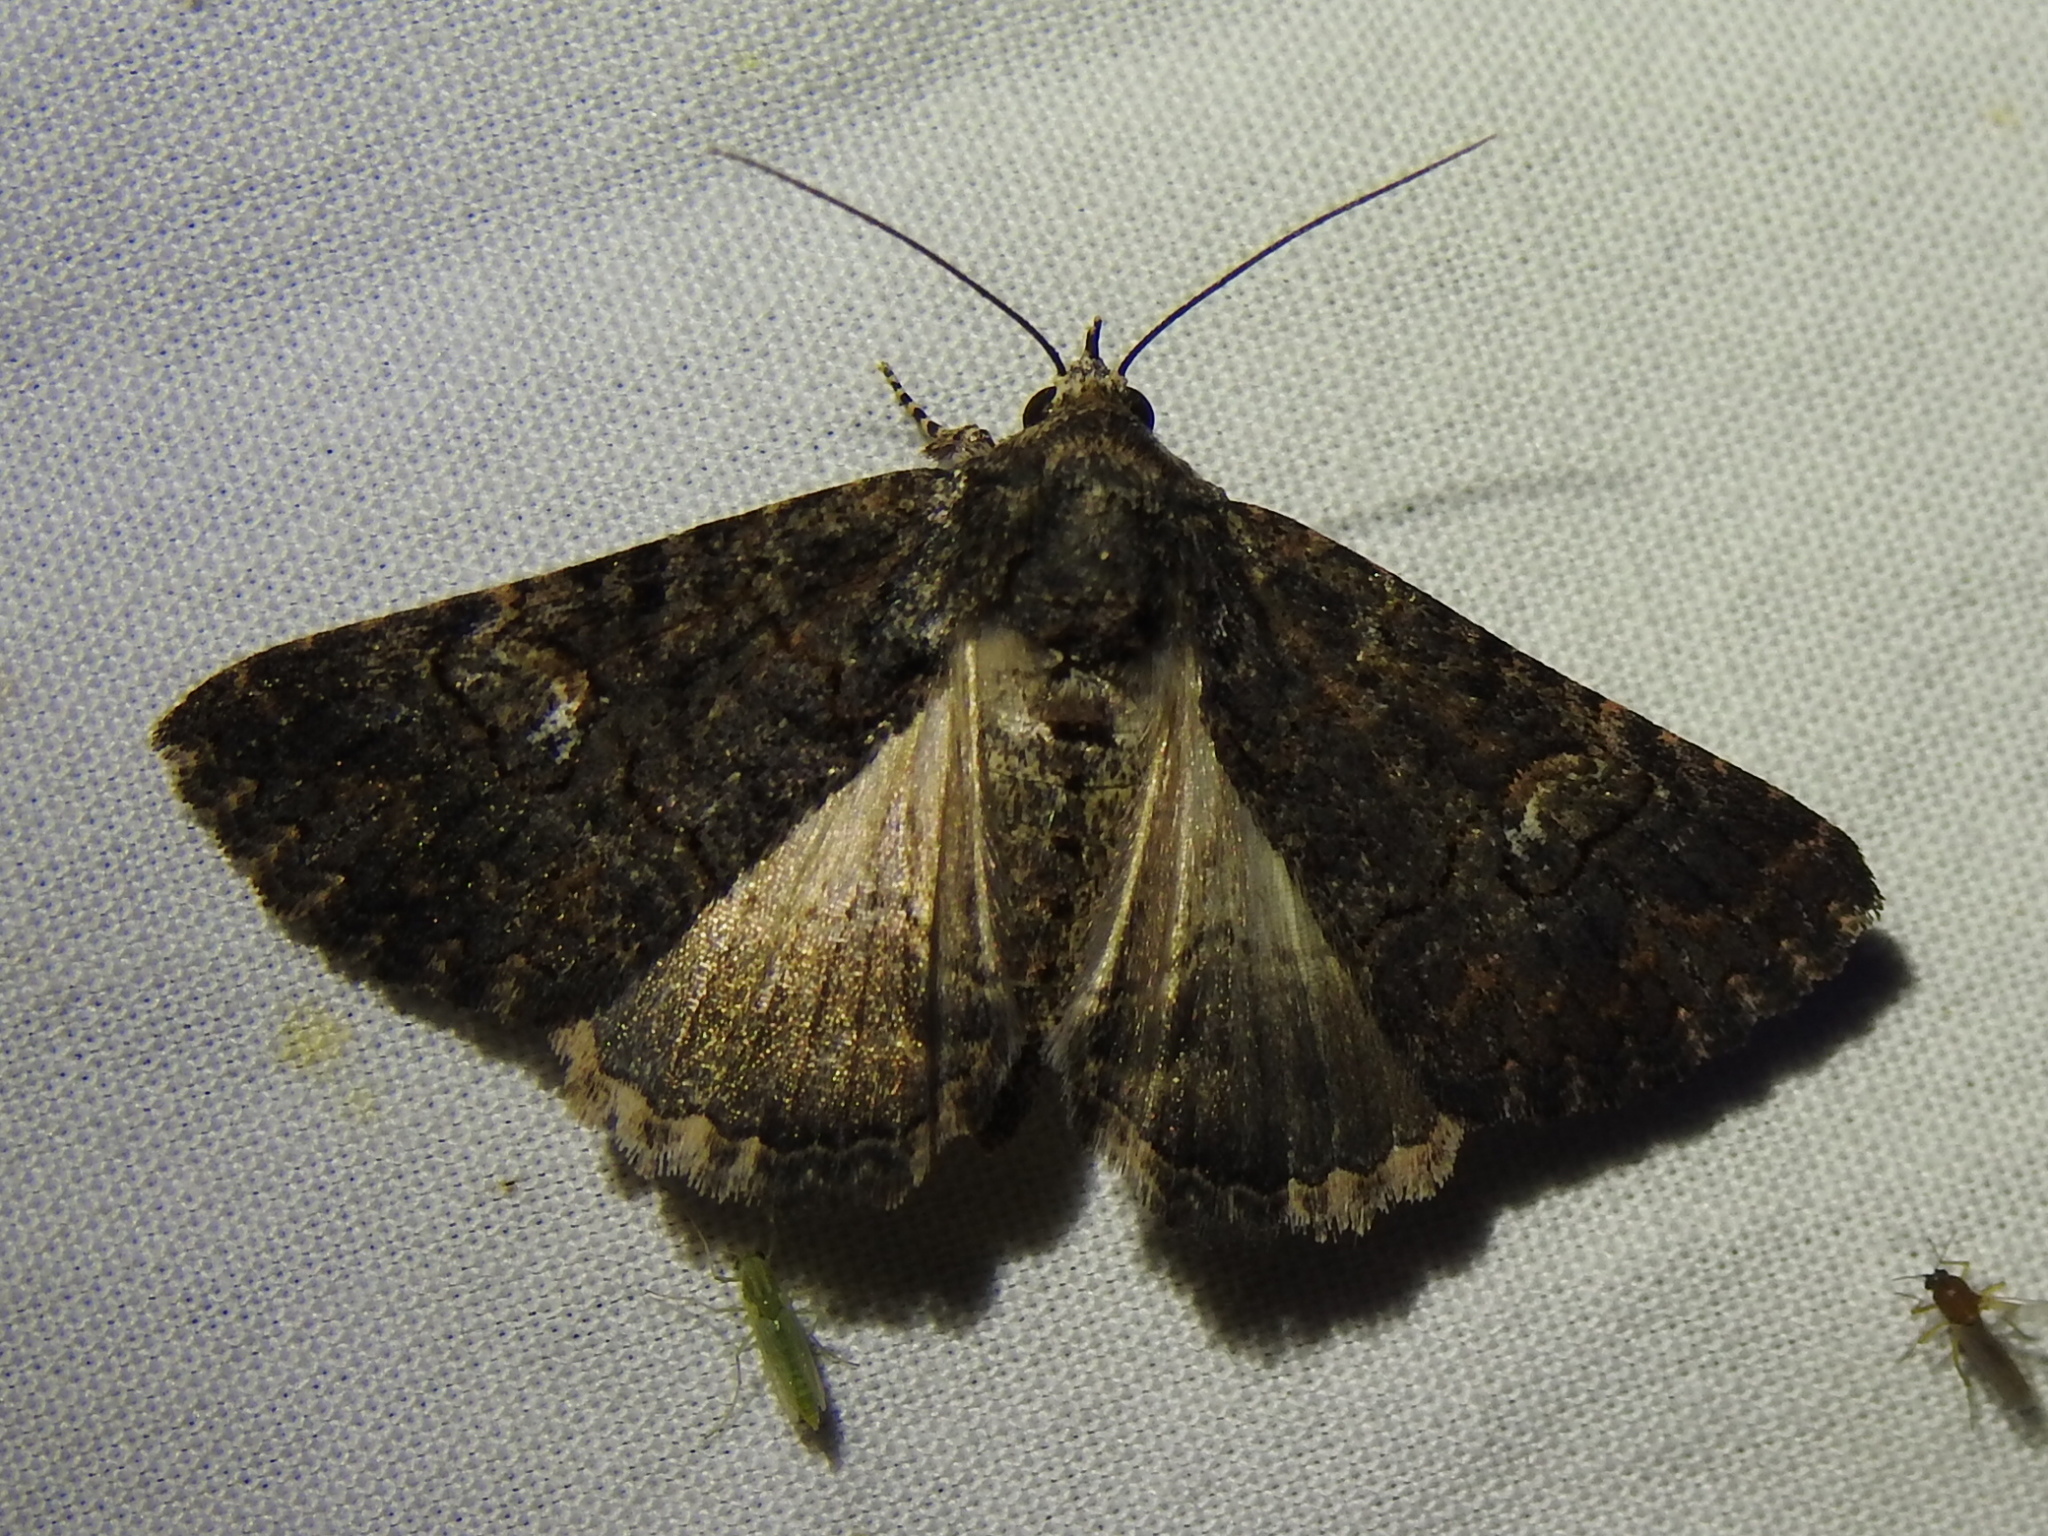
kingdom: Animalia
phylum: Arthropoda
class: Insecta
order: Lepidoptera
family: Erebidae
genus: Elousa
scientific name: Elousa mima
